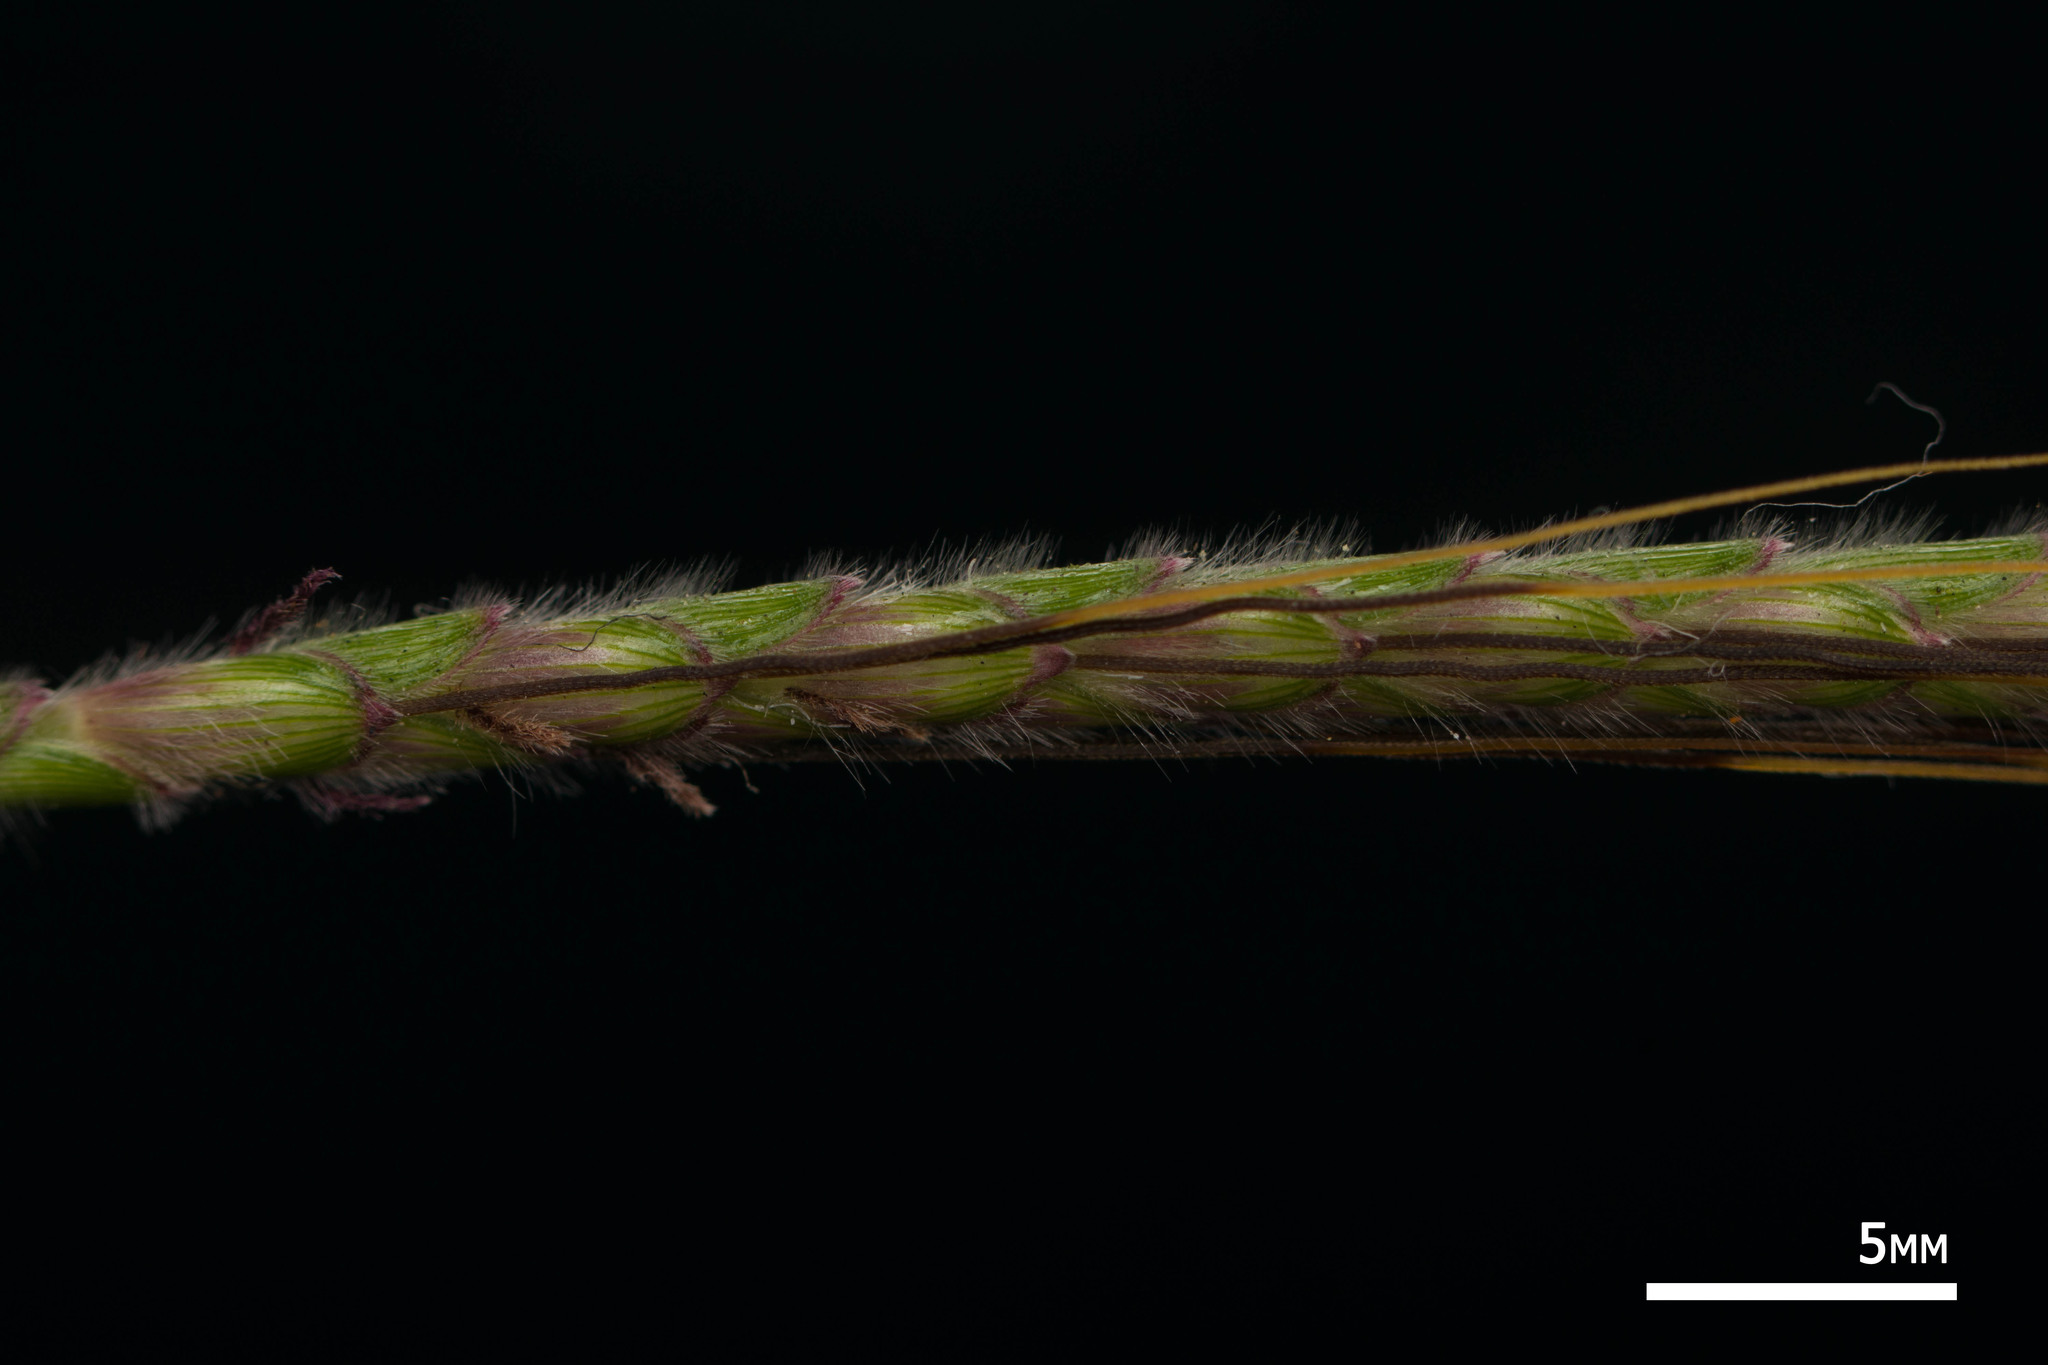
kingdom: Plantae
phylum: Tracheophyta
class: Liliopsida
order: Poales
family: Poaceae
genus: Dichanthium
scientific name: Dichanthium aristatum
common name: Angleton bluestem
